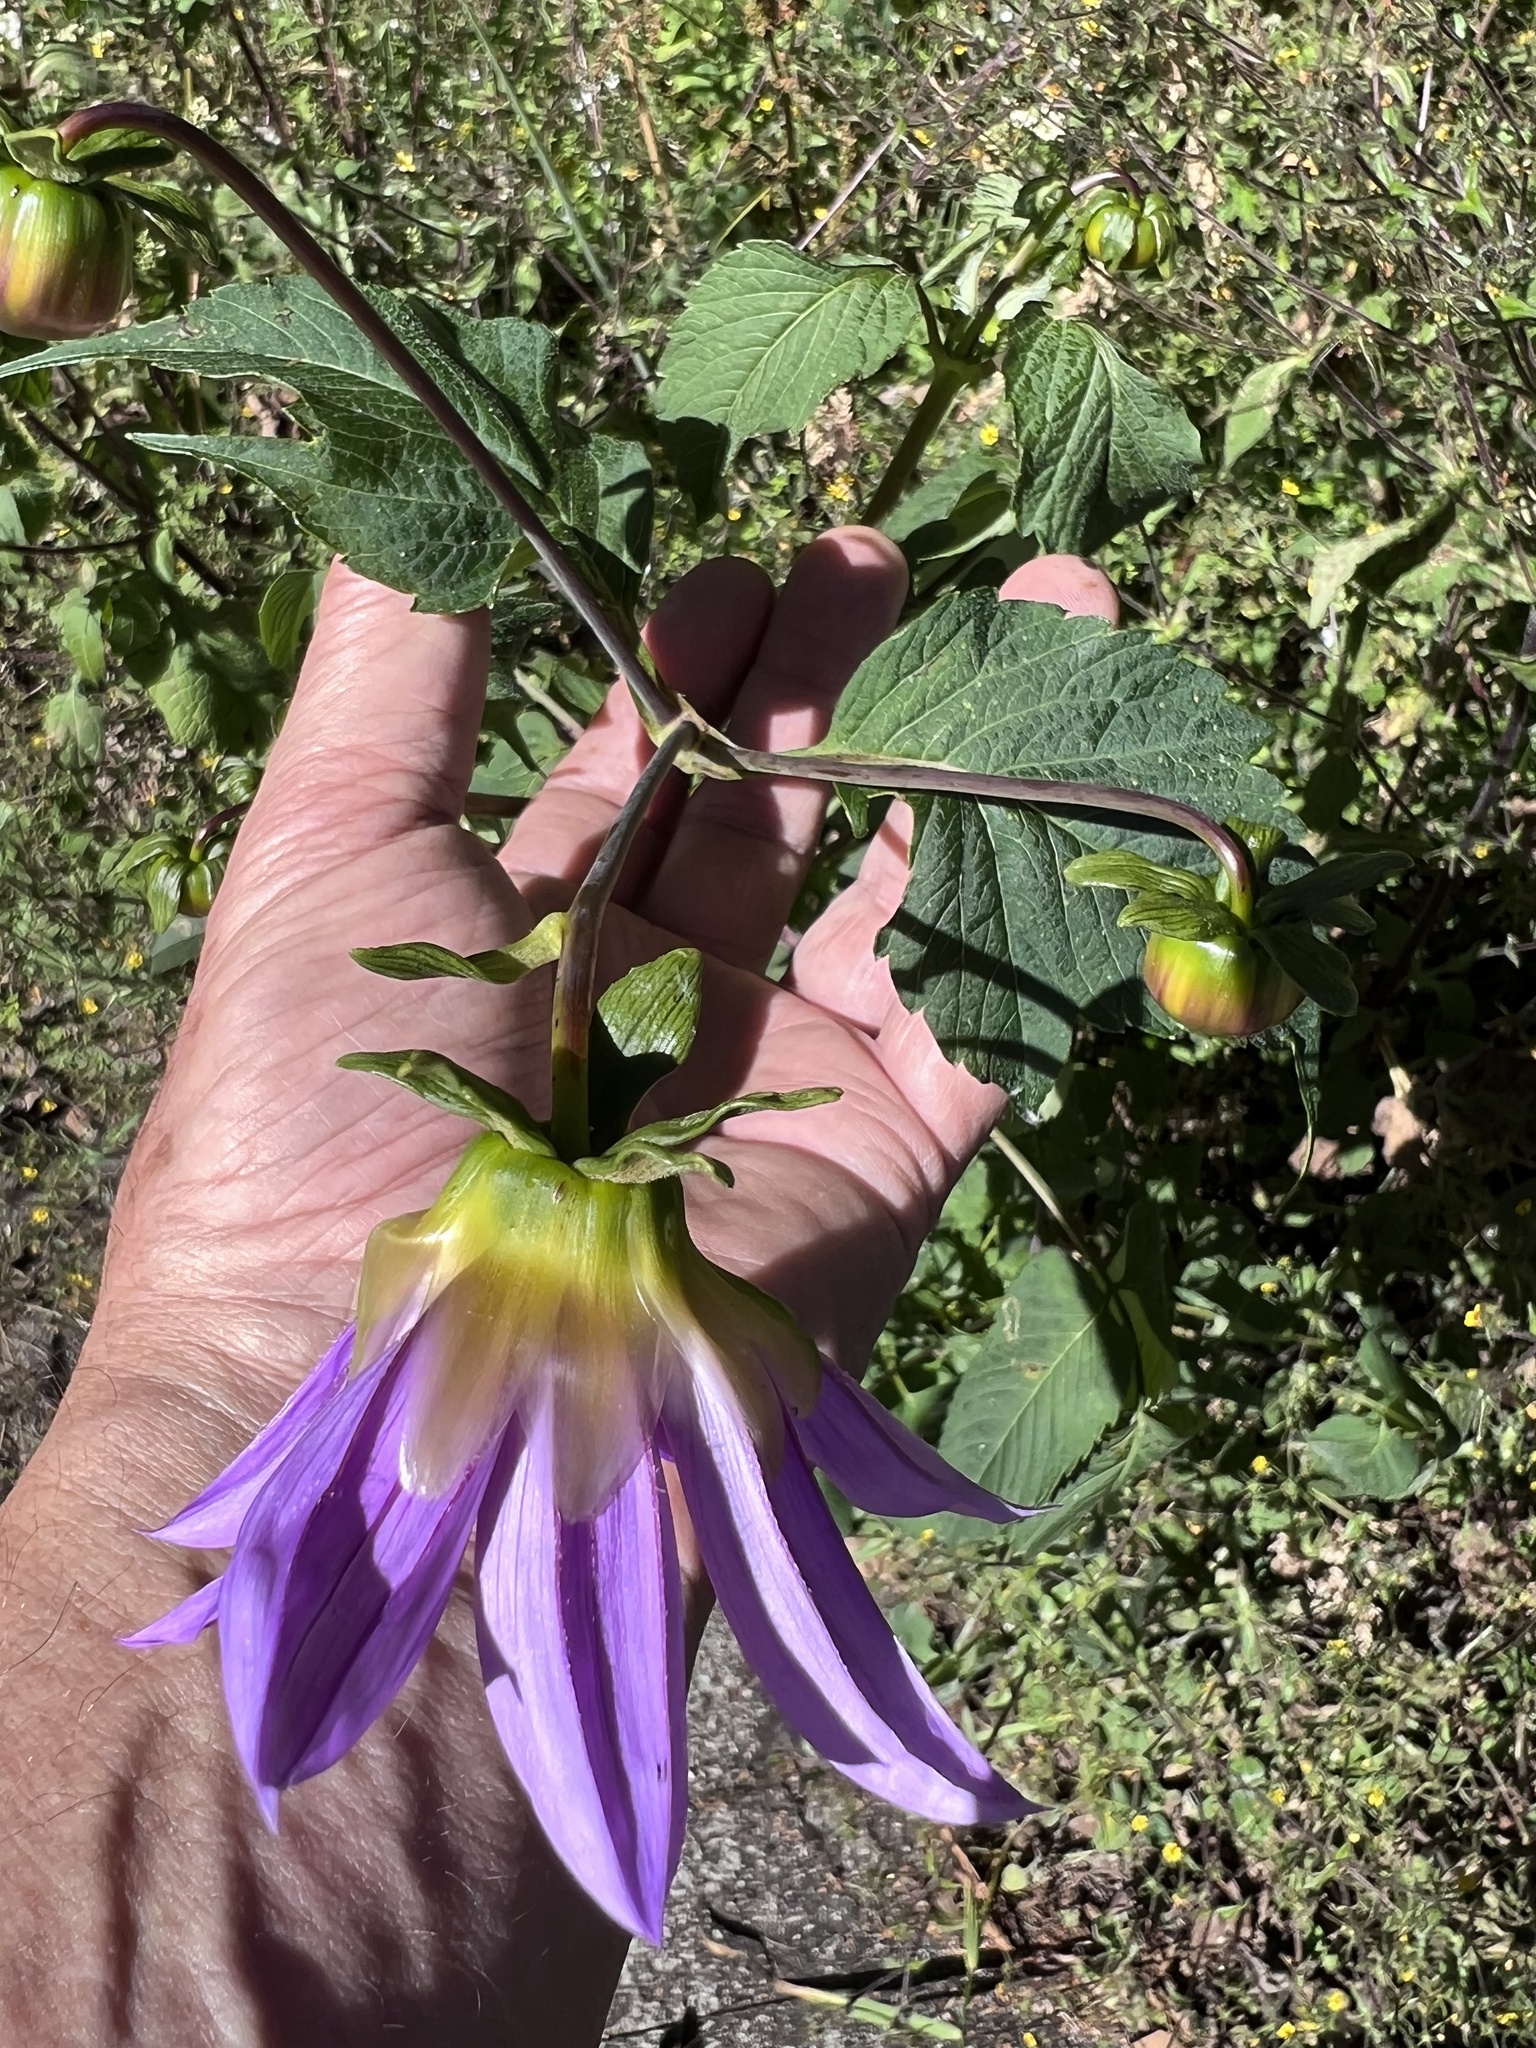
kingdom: Plantae
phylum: Tracheophyta
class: Magnoliopsida
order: Asterales
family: Asteraceae
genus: Dahlia
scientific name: Dahlia imperialis
